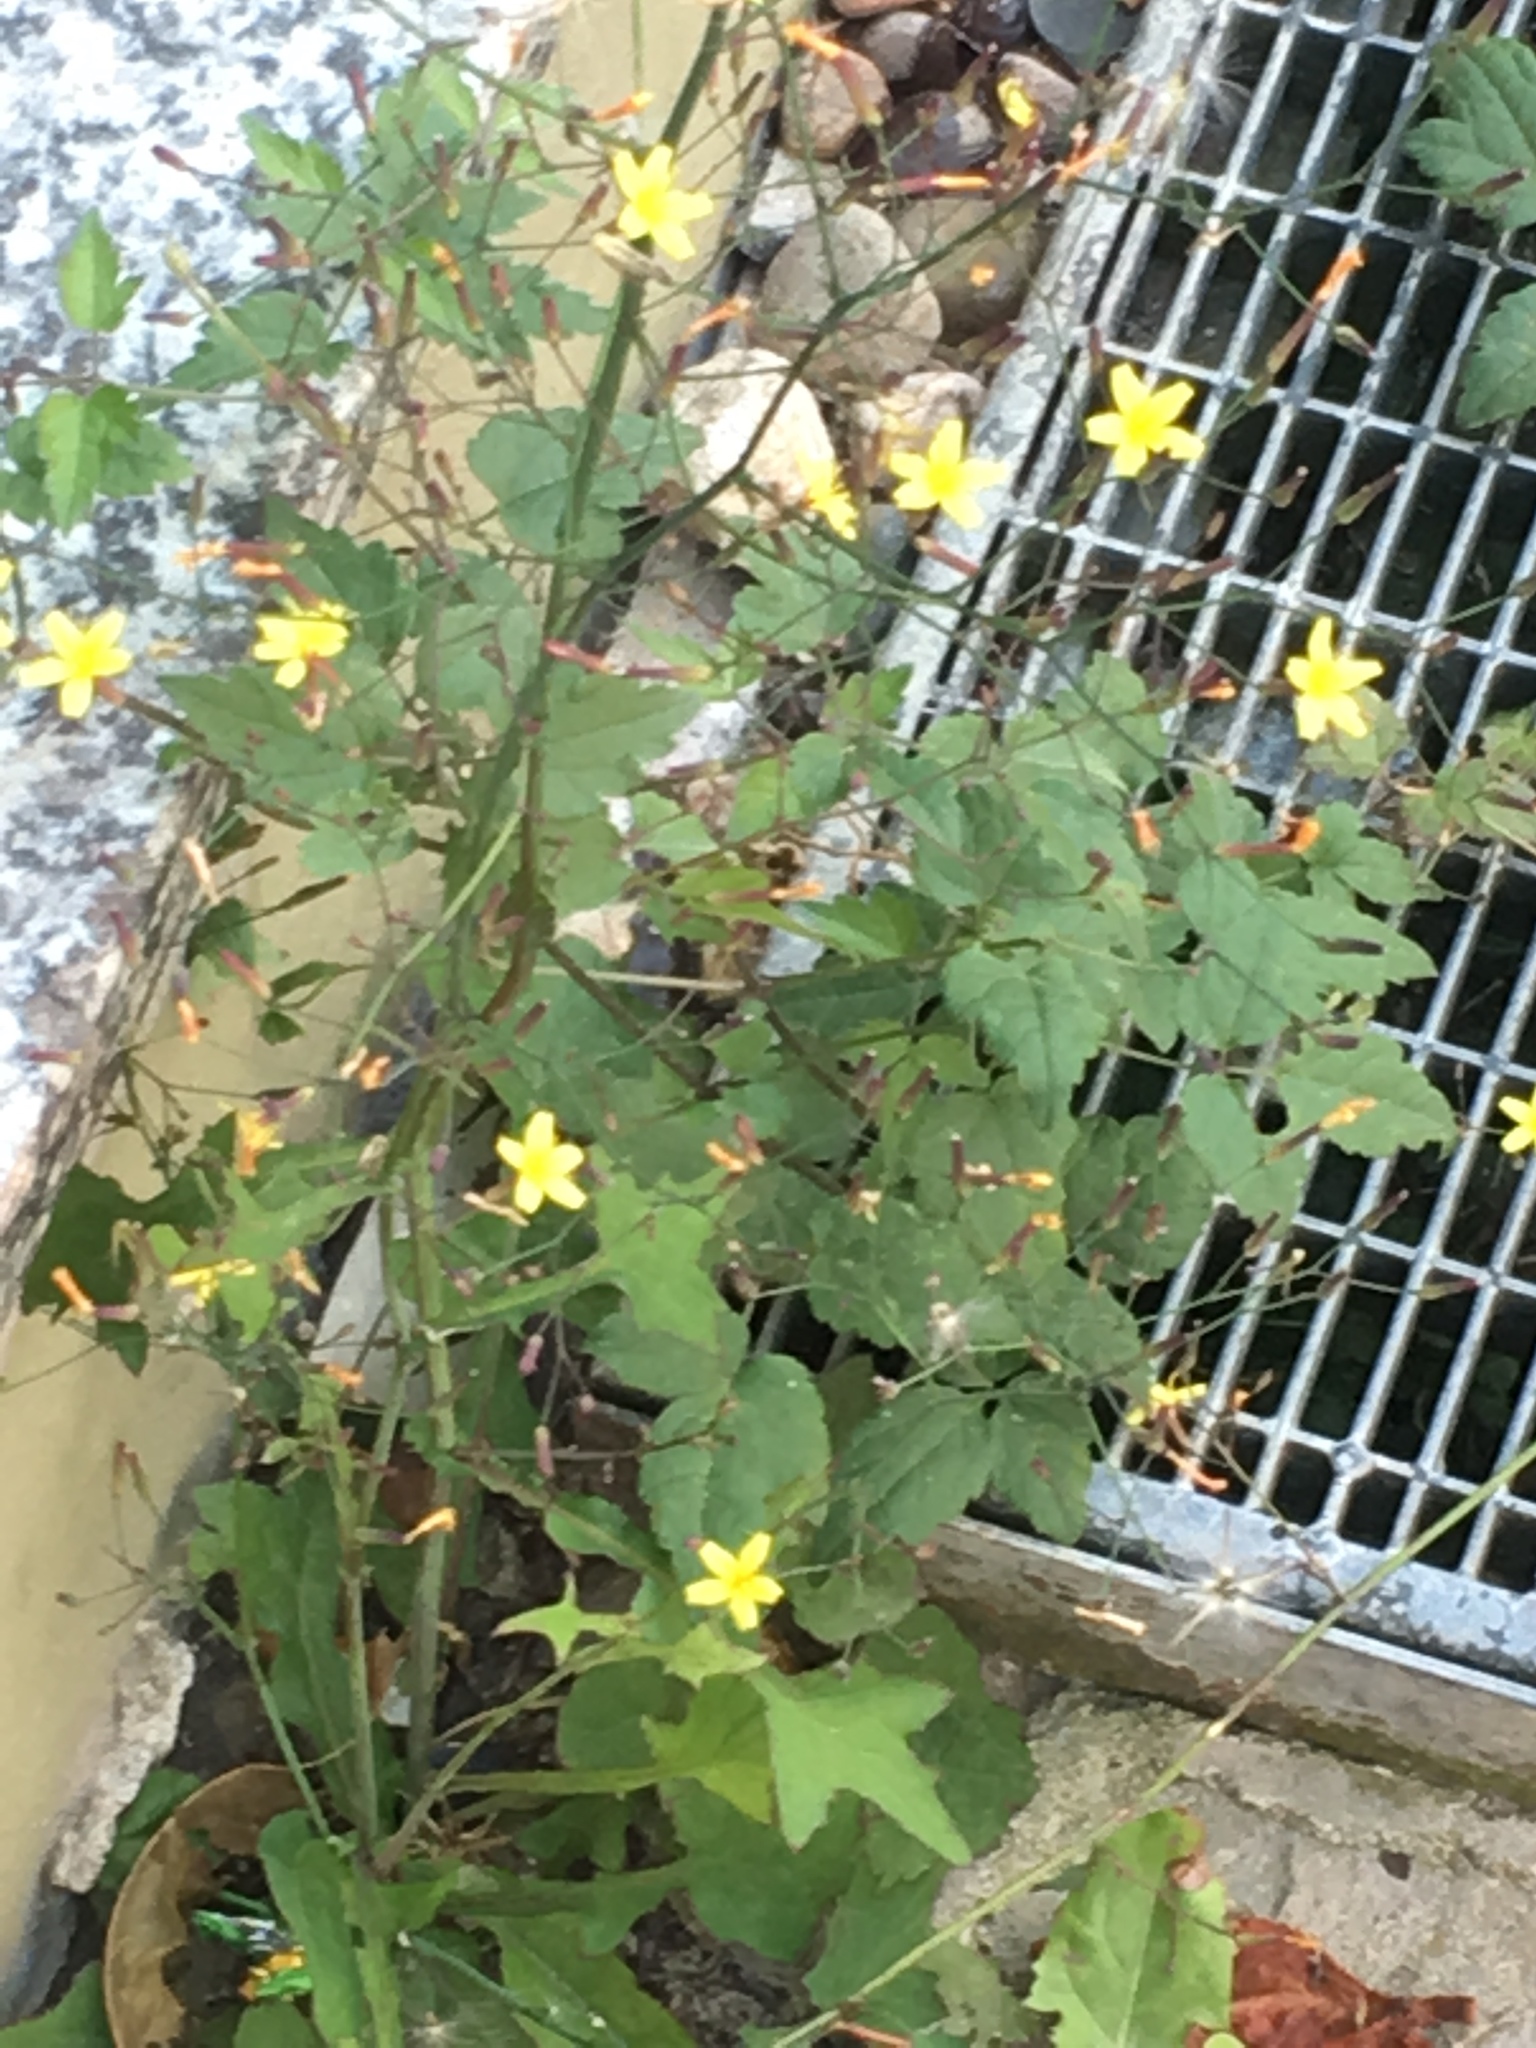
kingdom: Plantae
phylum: Tracheophyta
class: Magnoliopsida
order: Asterales
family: Asteraceae
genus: Mycelis
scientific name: Mycelis muralis
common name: Wall lettuce
